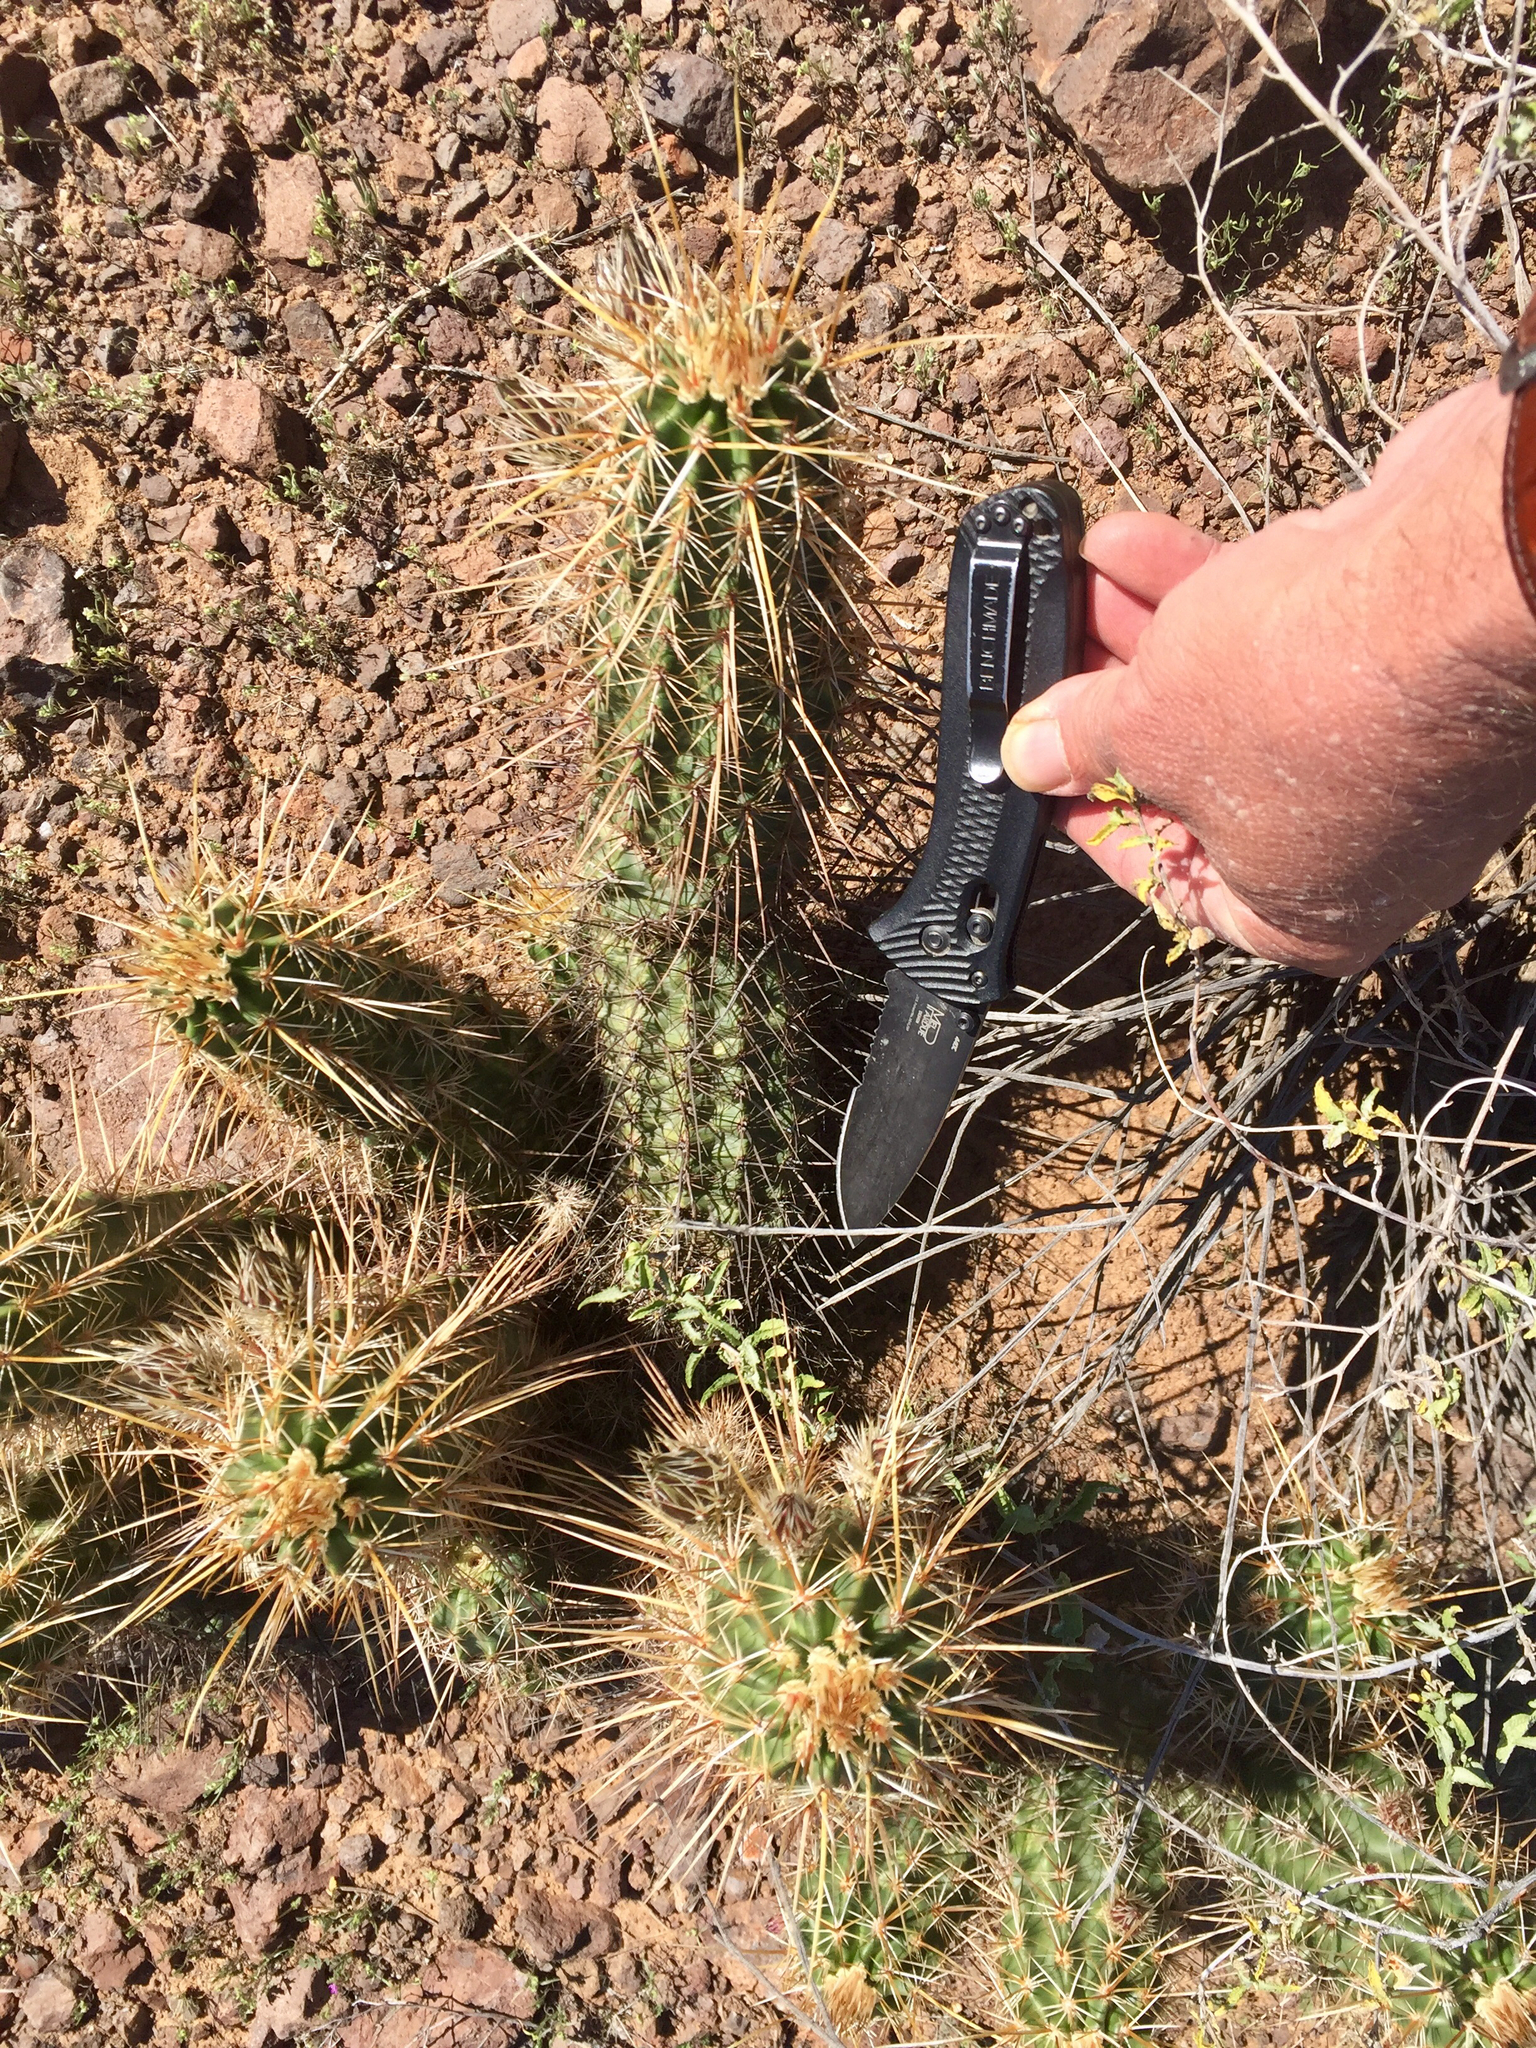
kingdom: Plantae
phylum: Tracheophyta
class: Magnoliopsida
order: Caryophyllales
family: Cactaceae
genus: Echinocereus
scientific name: Echinocereus fasciculatus
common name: Bundle hedgehog
